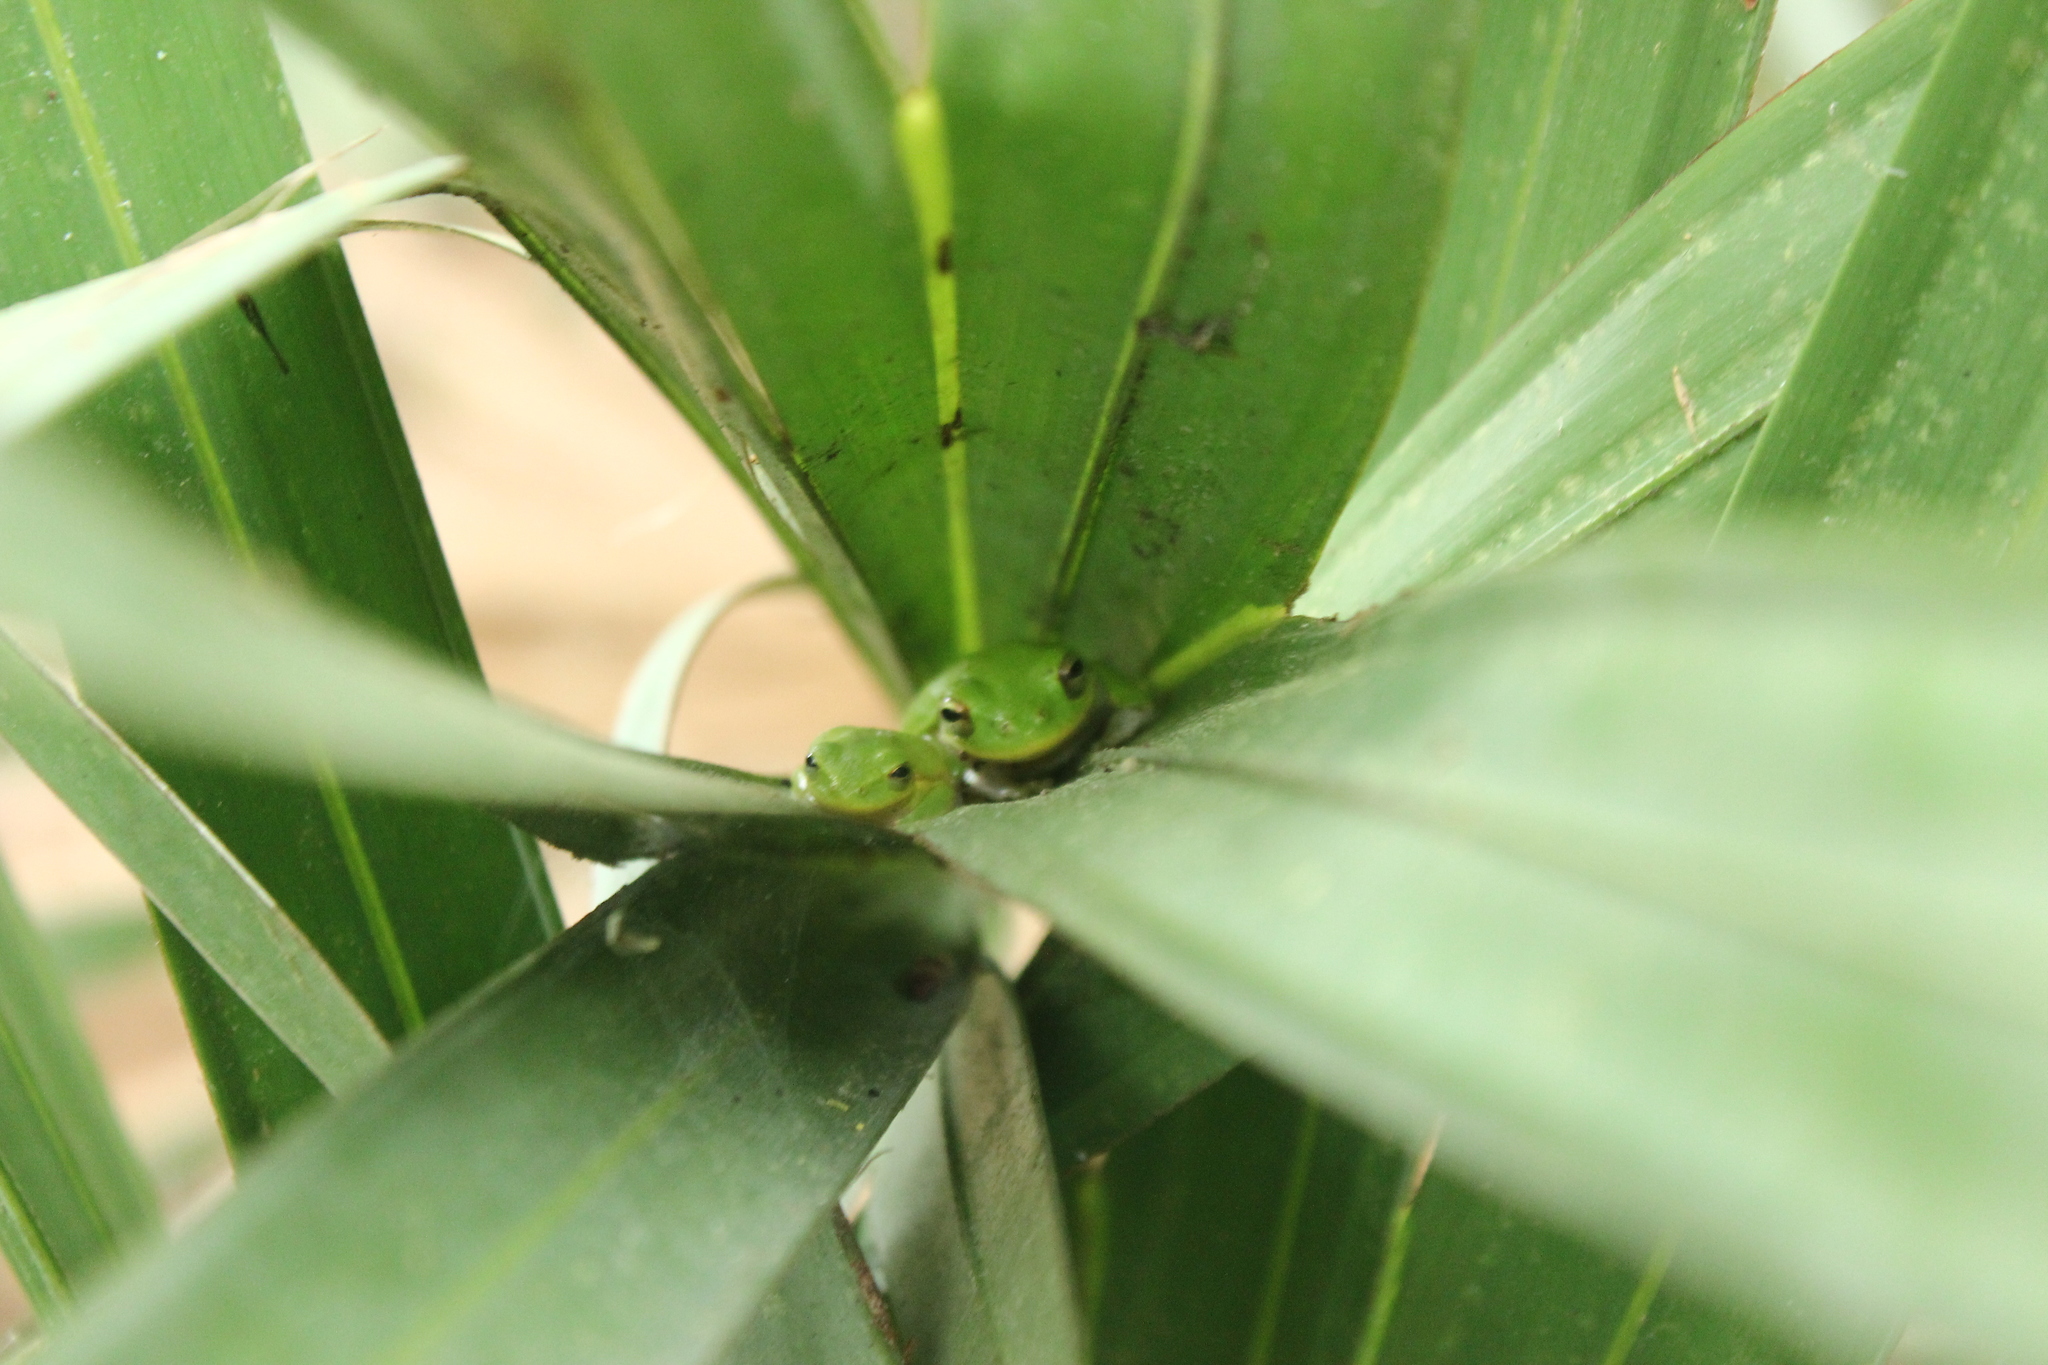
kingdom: Animalia
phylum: Chordata
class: Amphibia
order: Anura
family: Hylidae
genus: Dryophytes
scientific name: Dryophytes squirellus
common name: Squirrel treefrog
